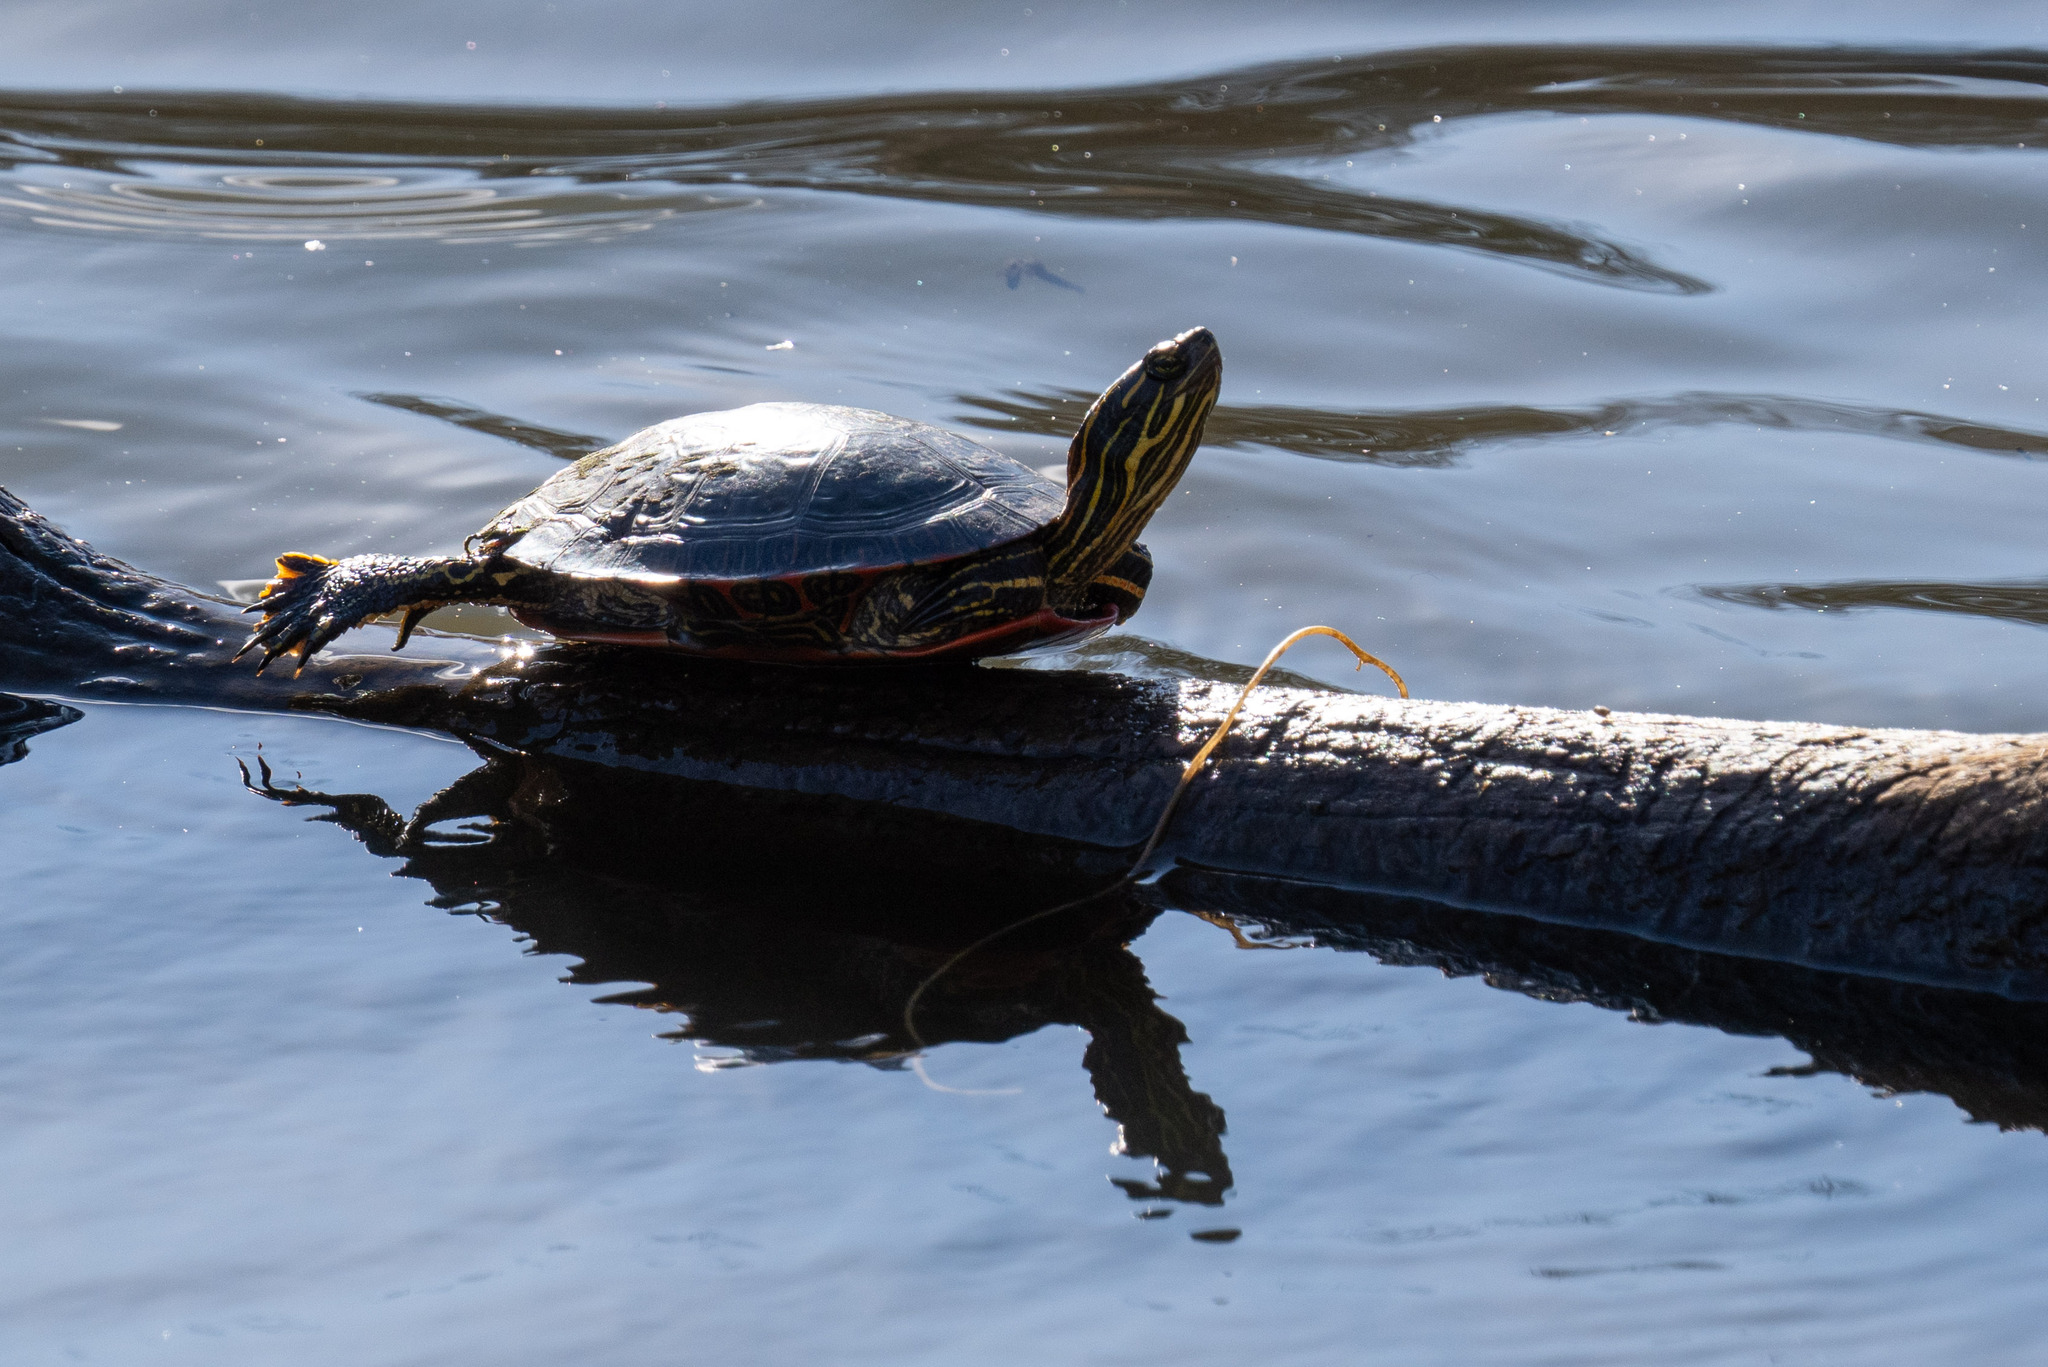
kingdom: Animalia
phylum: Chordata
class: Testudines
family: Emydidae
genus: Chrysemys
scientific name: Chrysemys picta
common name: Painted turtle
